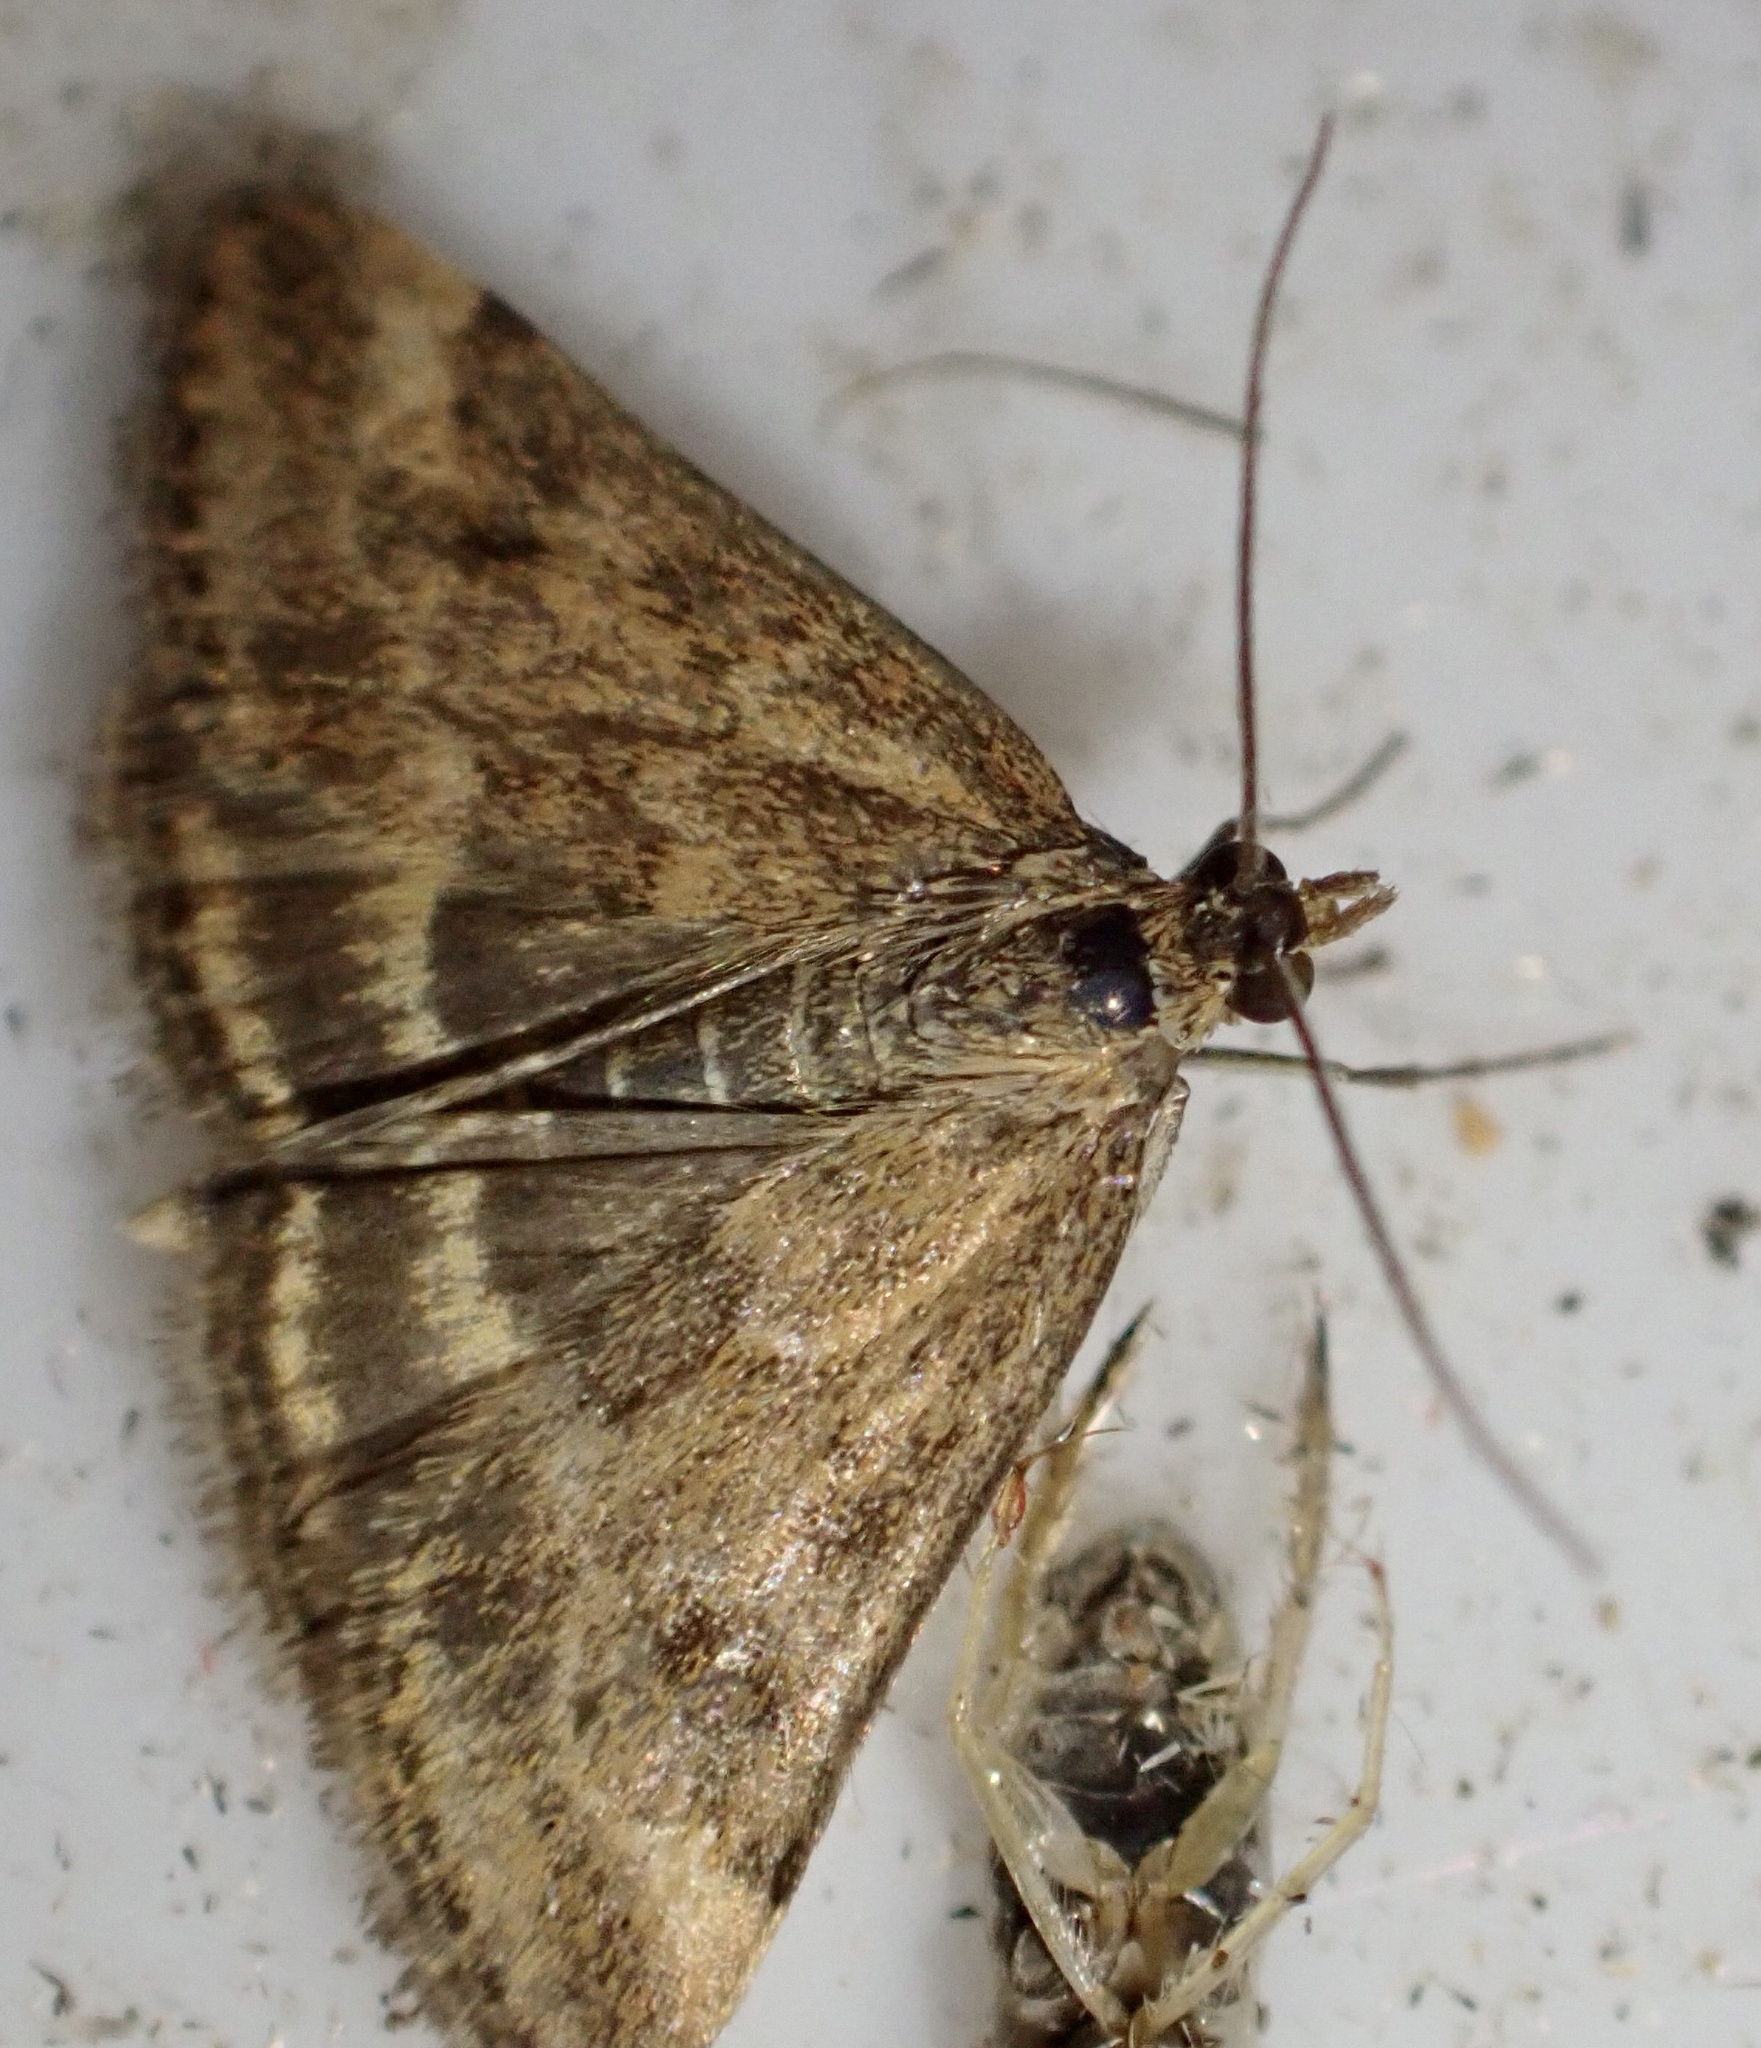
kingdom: Animalia
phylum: Arthropoda
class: Insecta
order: Lepidoptera
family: Crambidae
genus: Pyrausta
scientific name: Pyrausta despicata
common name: Straw-barred pearl
